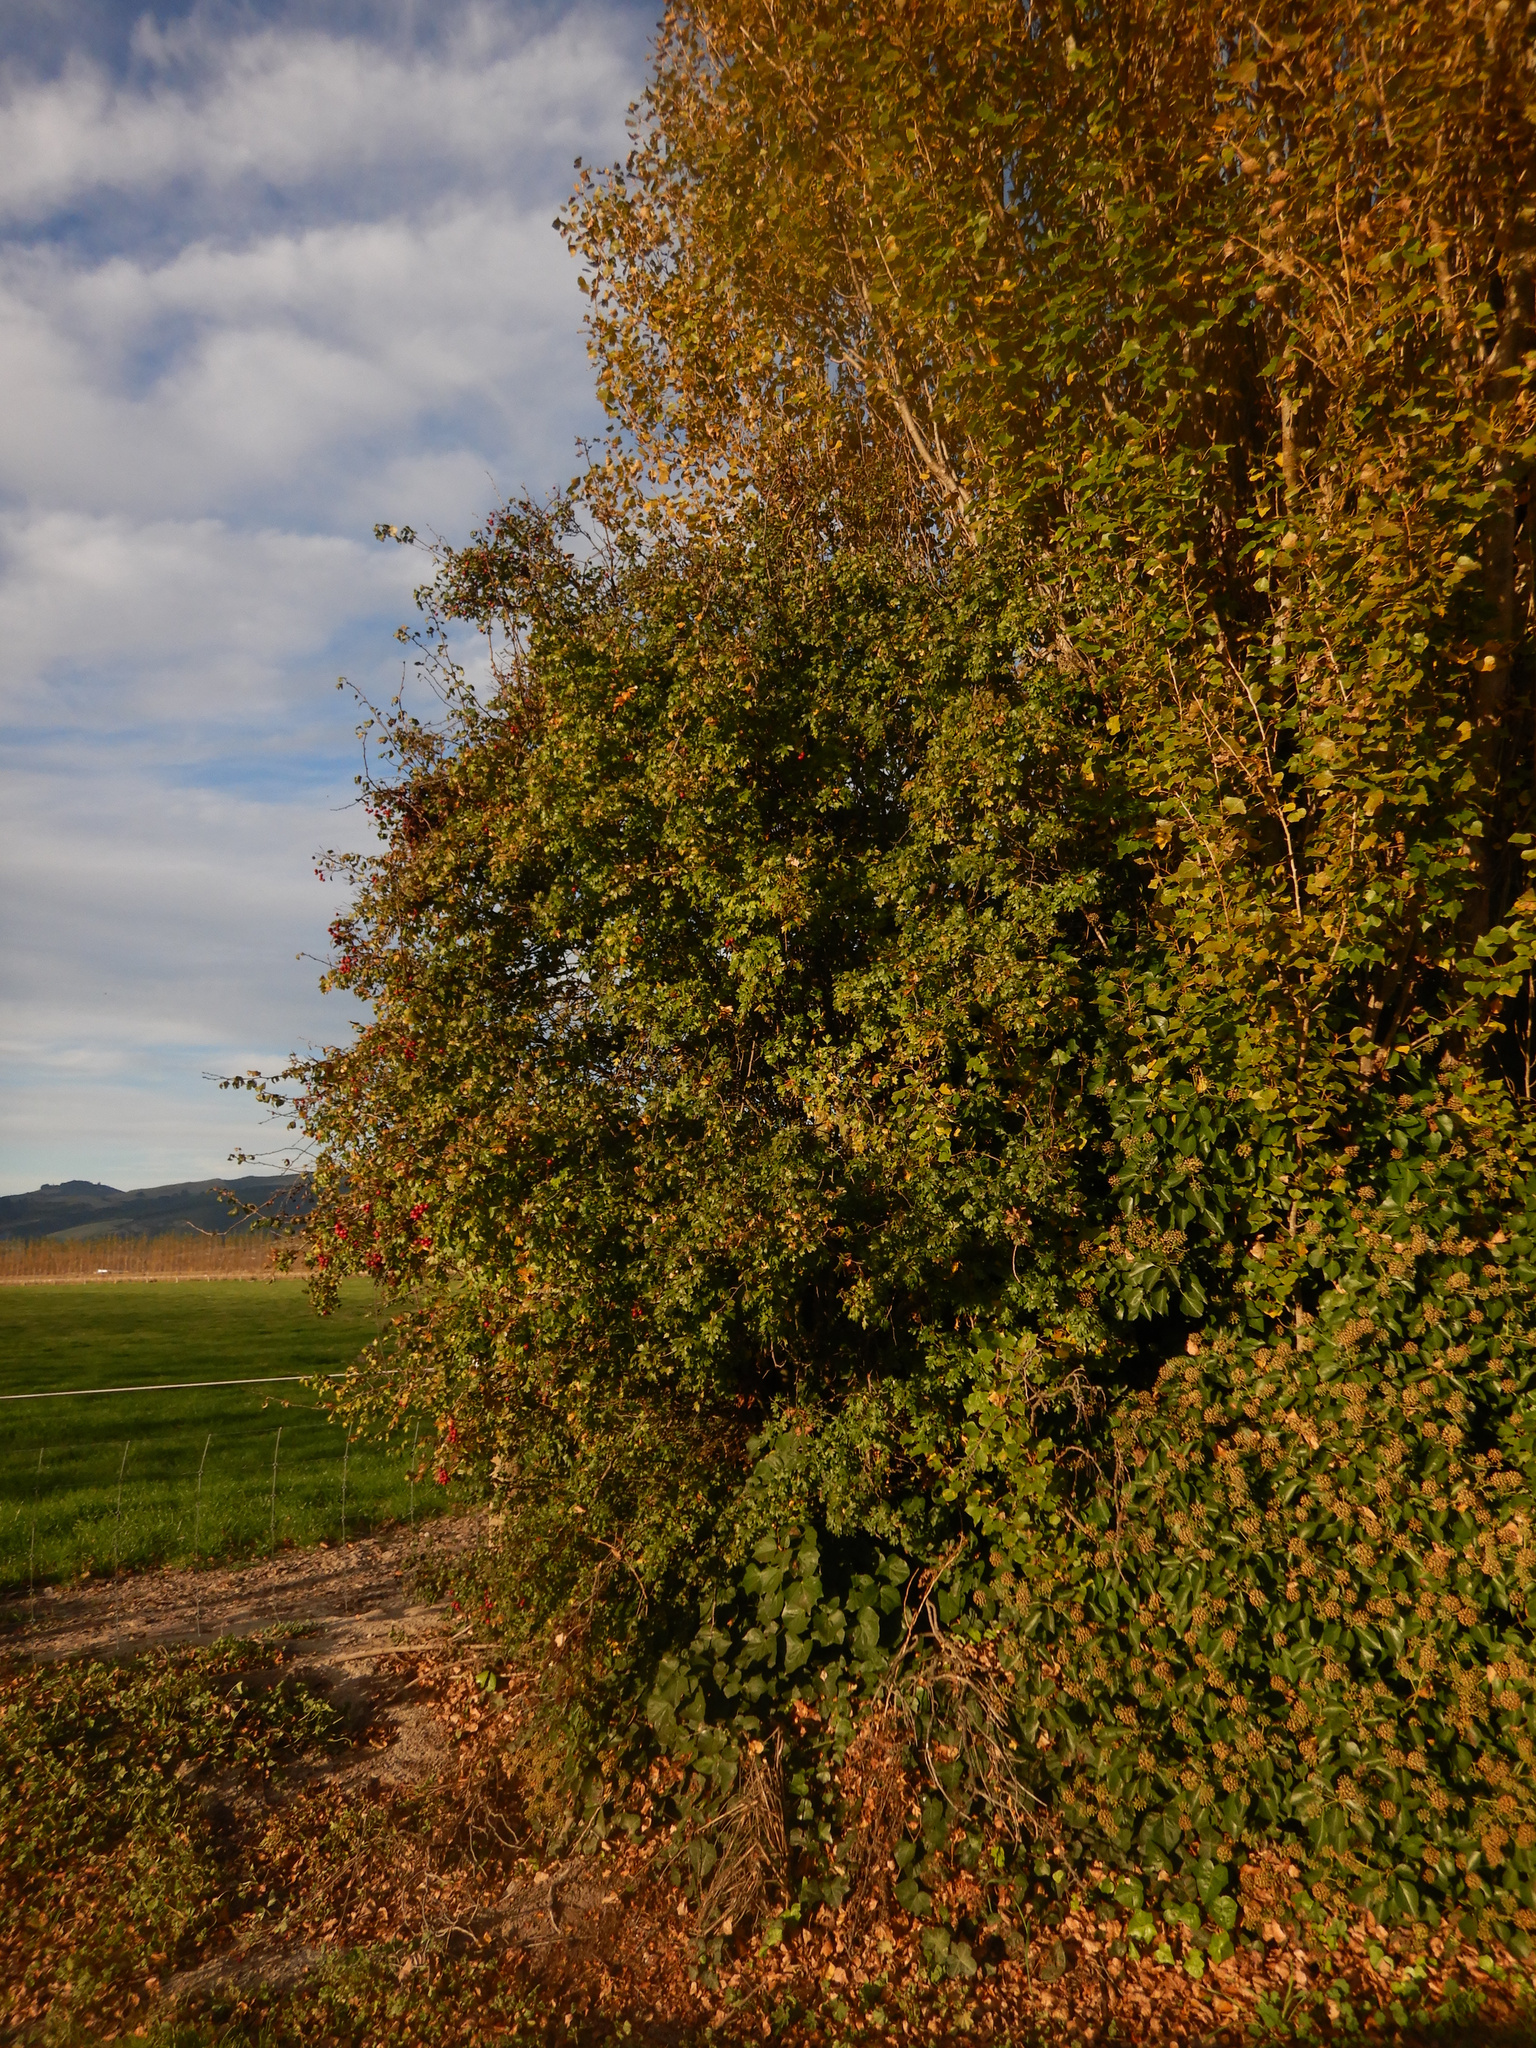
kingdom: Plantae
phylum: Tracheophyta
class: Magnoliopsida
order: Rosales
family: Rosaceae
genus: Crataegus
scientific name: Crataegus monogyna
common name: Hawthorn
